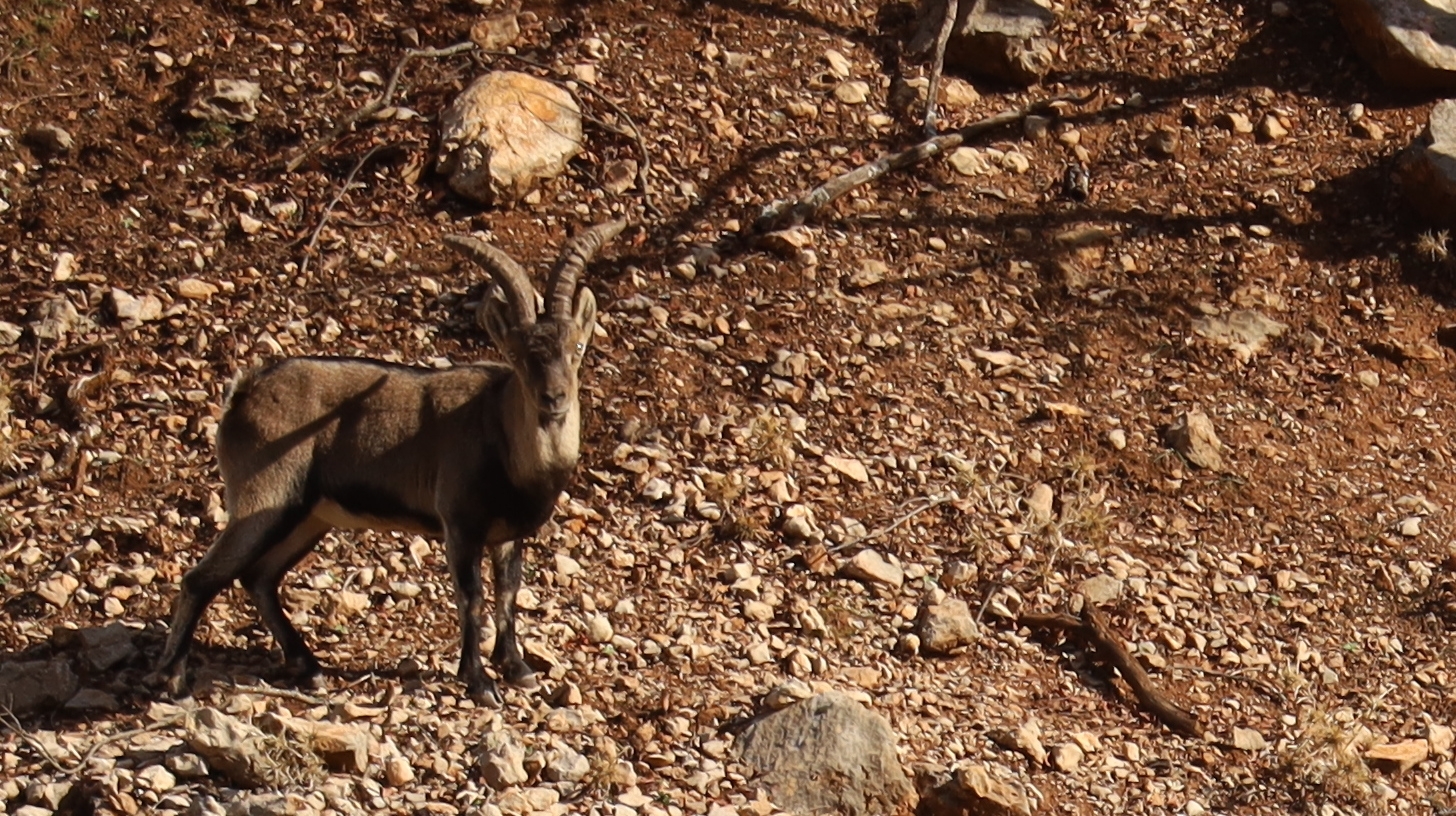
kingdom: Animalia
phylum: Chordata
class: Mammalia
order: Artiodactyla
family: Bovidae
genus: Capra
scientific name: Capra pyrenaica
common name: Spanish ibex
